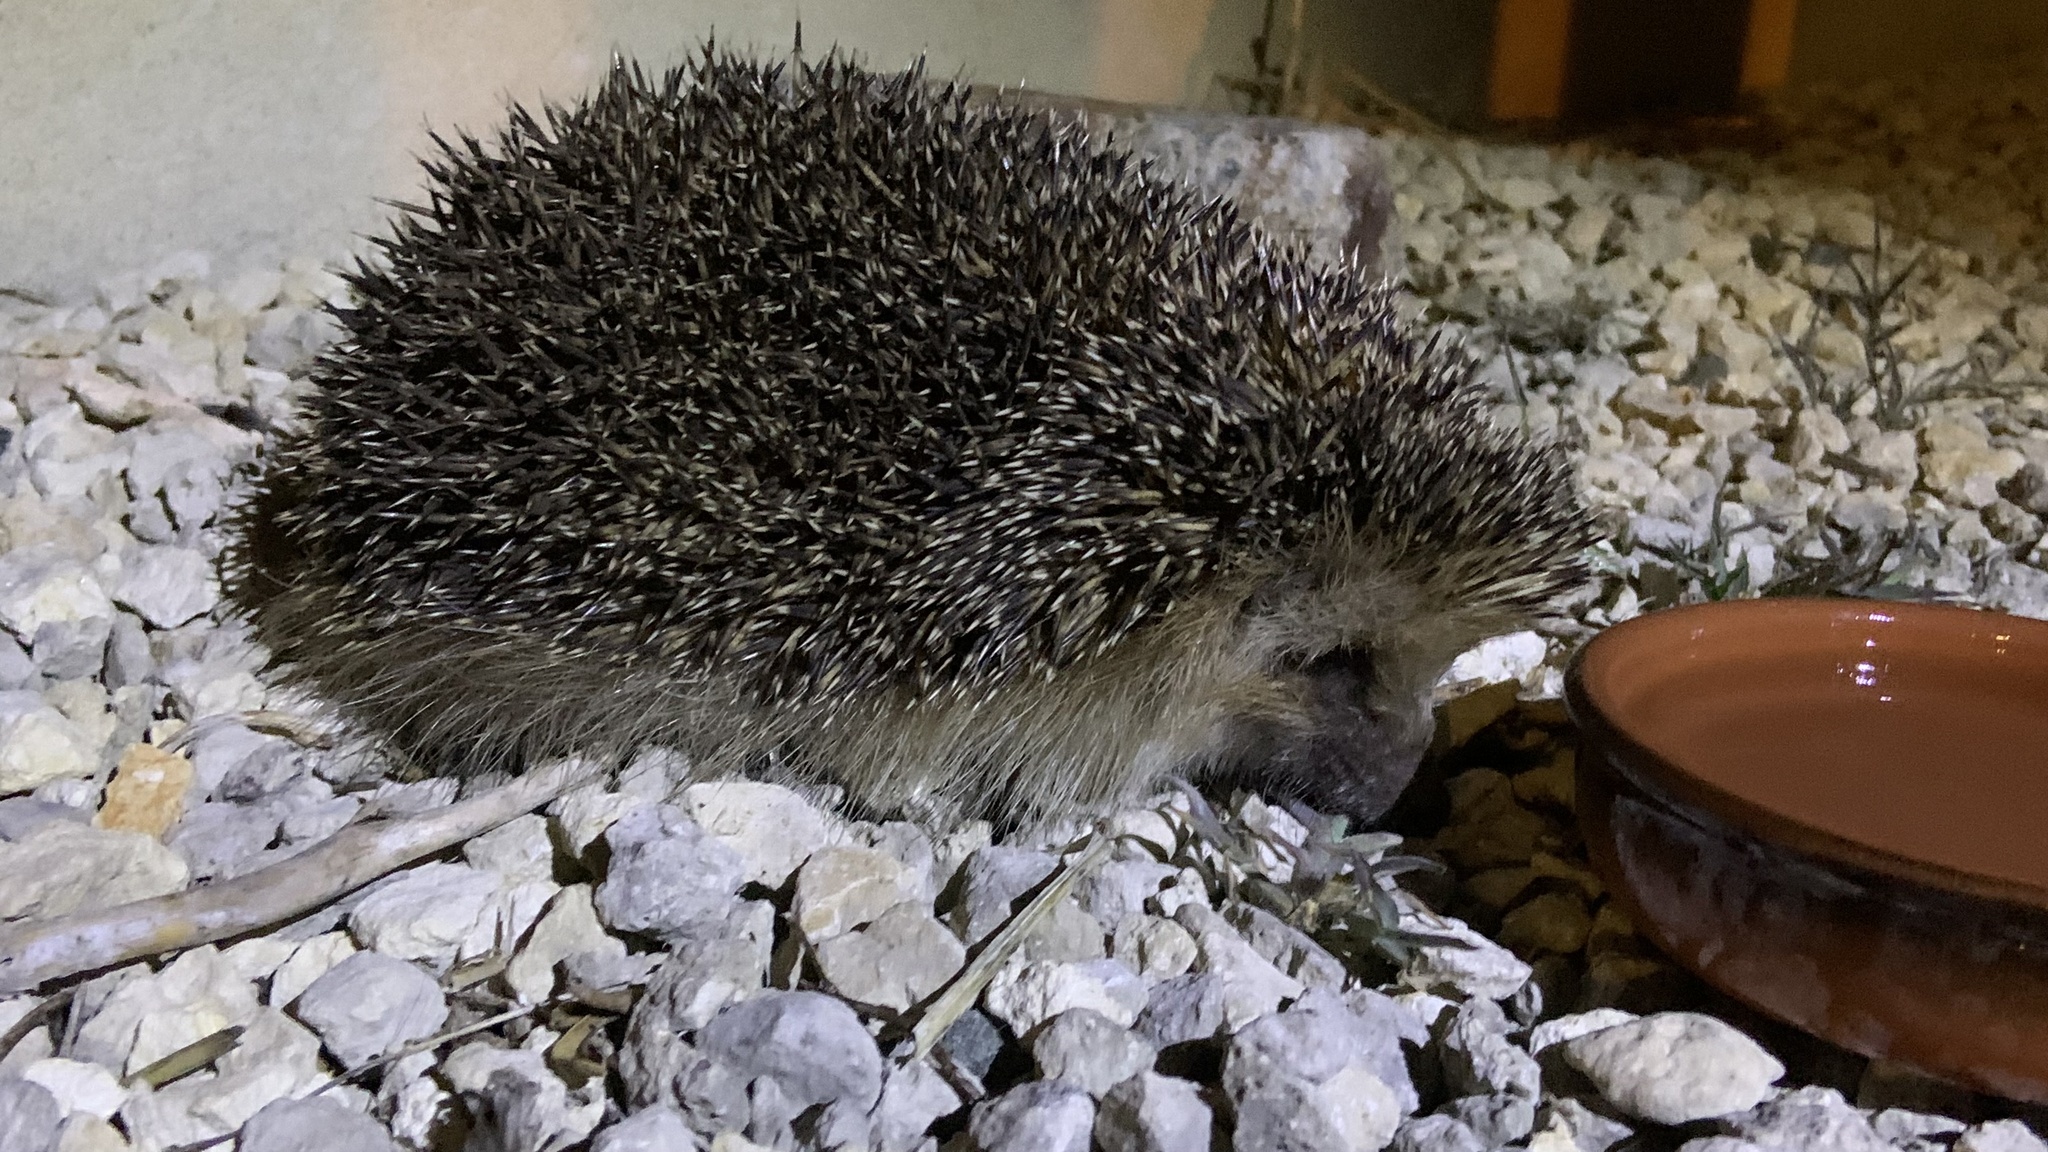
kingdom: Animalia
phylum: Chordata
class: Mammalia
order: Erinaceomorpha
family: Erinaceidae
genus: Erinaceus
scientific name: Erinaceus europaeus
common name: West european hedgehog
